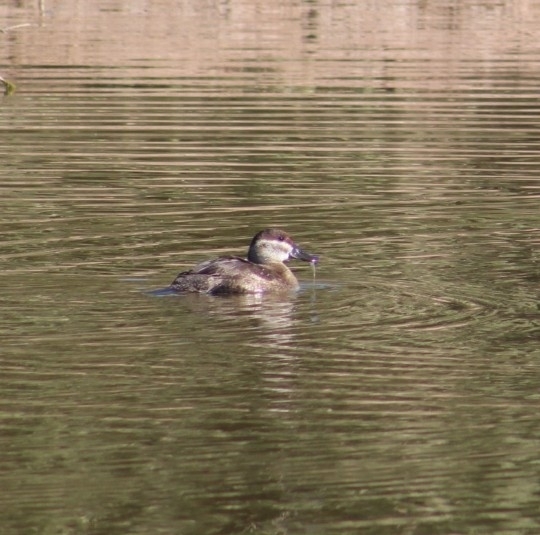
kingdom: Animalia
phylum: Chordata
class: Aves
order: Anseriformes
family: Anatidae
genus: Oxyura
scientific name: Oxyura jamaicensis
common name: Ruddy duck
